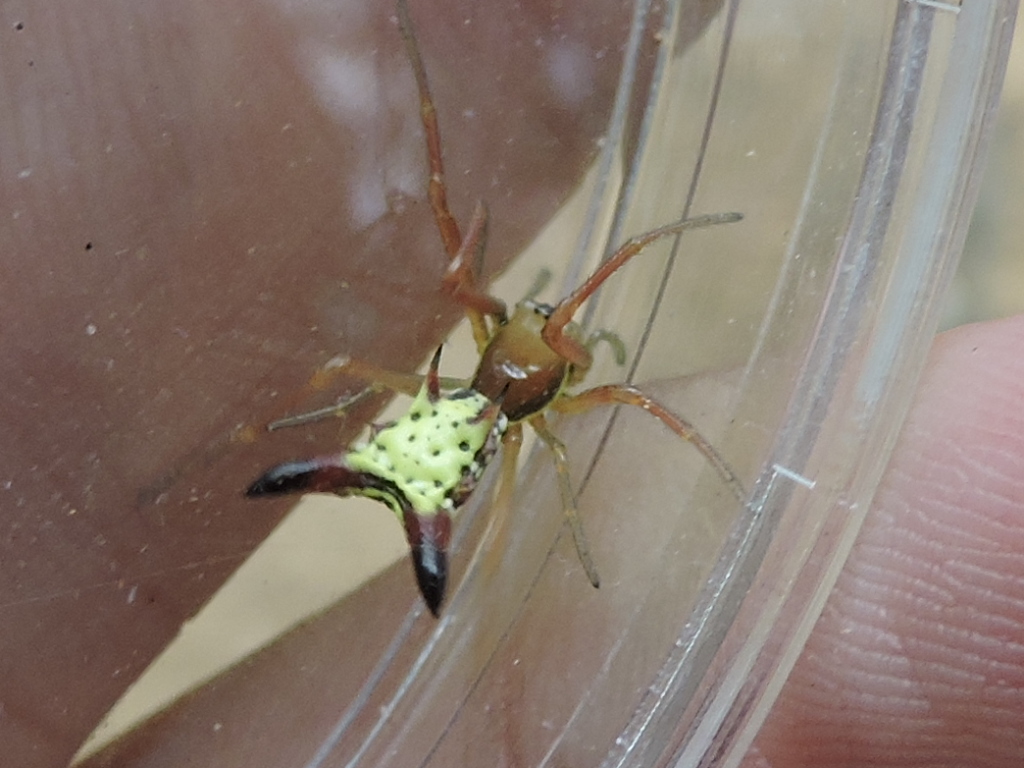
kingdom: Animalia
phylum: Arthropoda
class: Arachnida
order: Araneae
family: Araneidae
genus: Micrathena
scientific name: Micrathena sagittata
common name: Orb weavers
